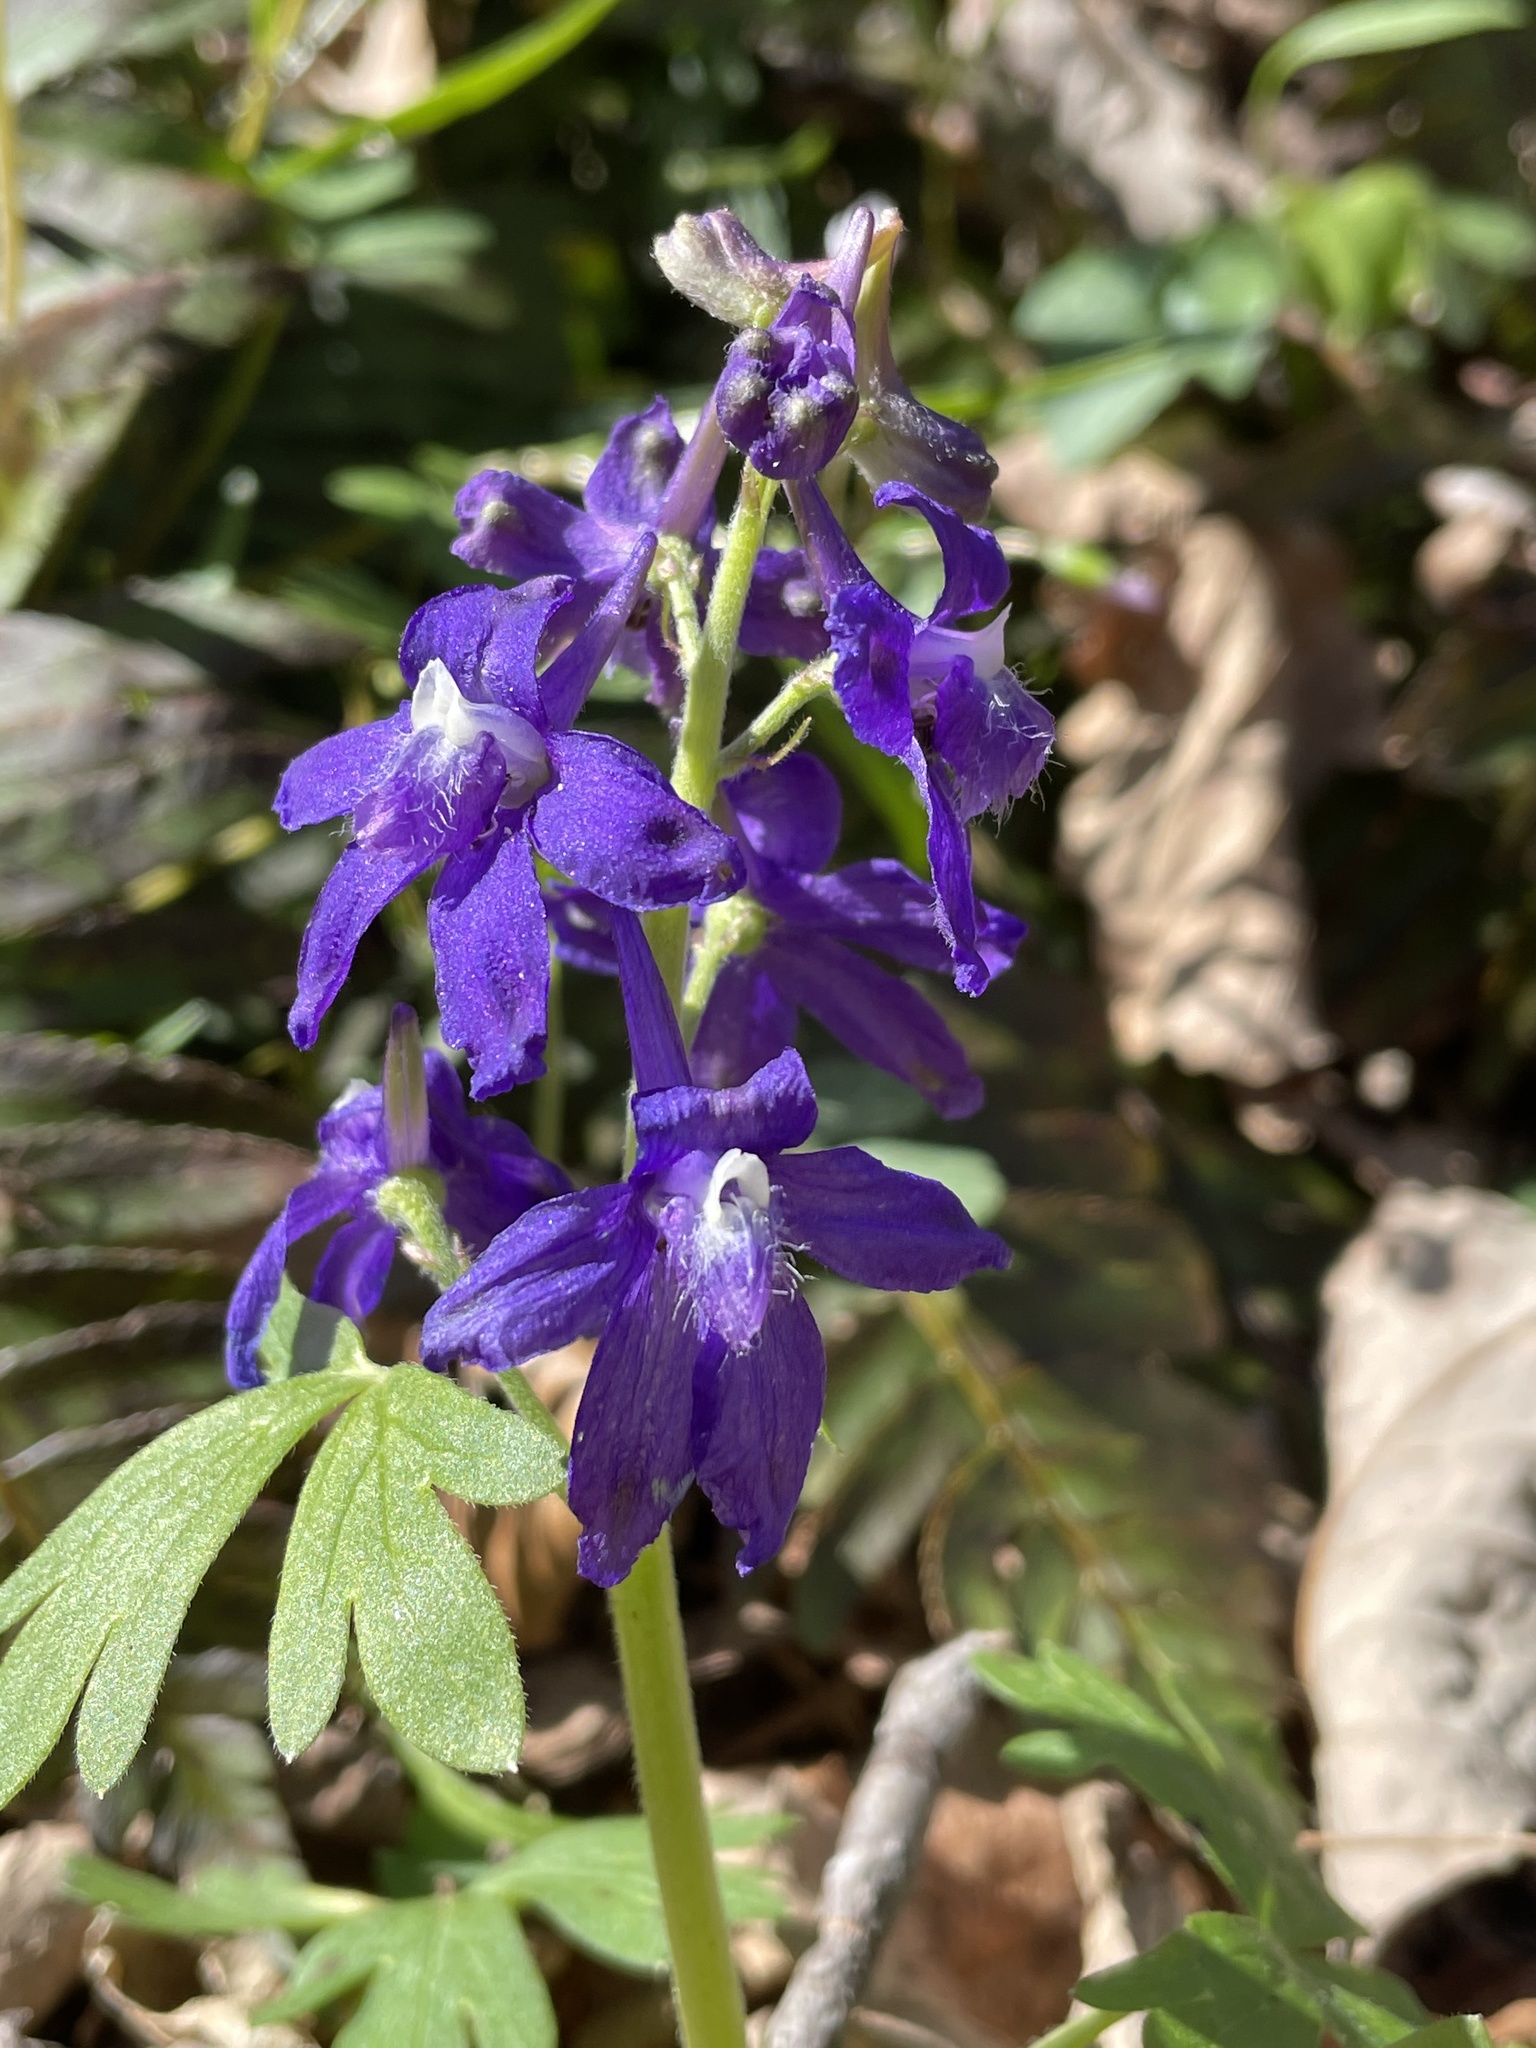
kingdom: Plantae
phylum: Tracheophyta
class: Magnoliopsida
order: Ranunculales
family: Ranunculaceae
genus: Delphinium
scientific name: Delphinium tricorne
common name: Dwarf larkspur
